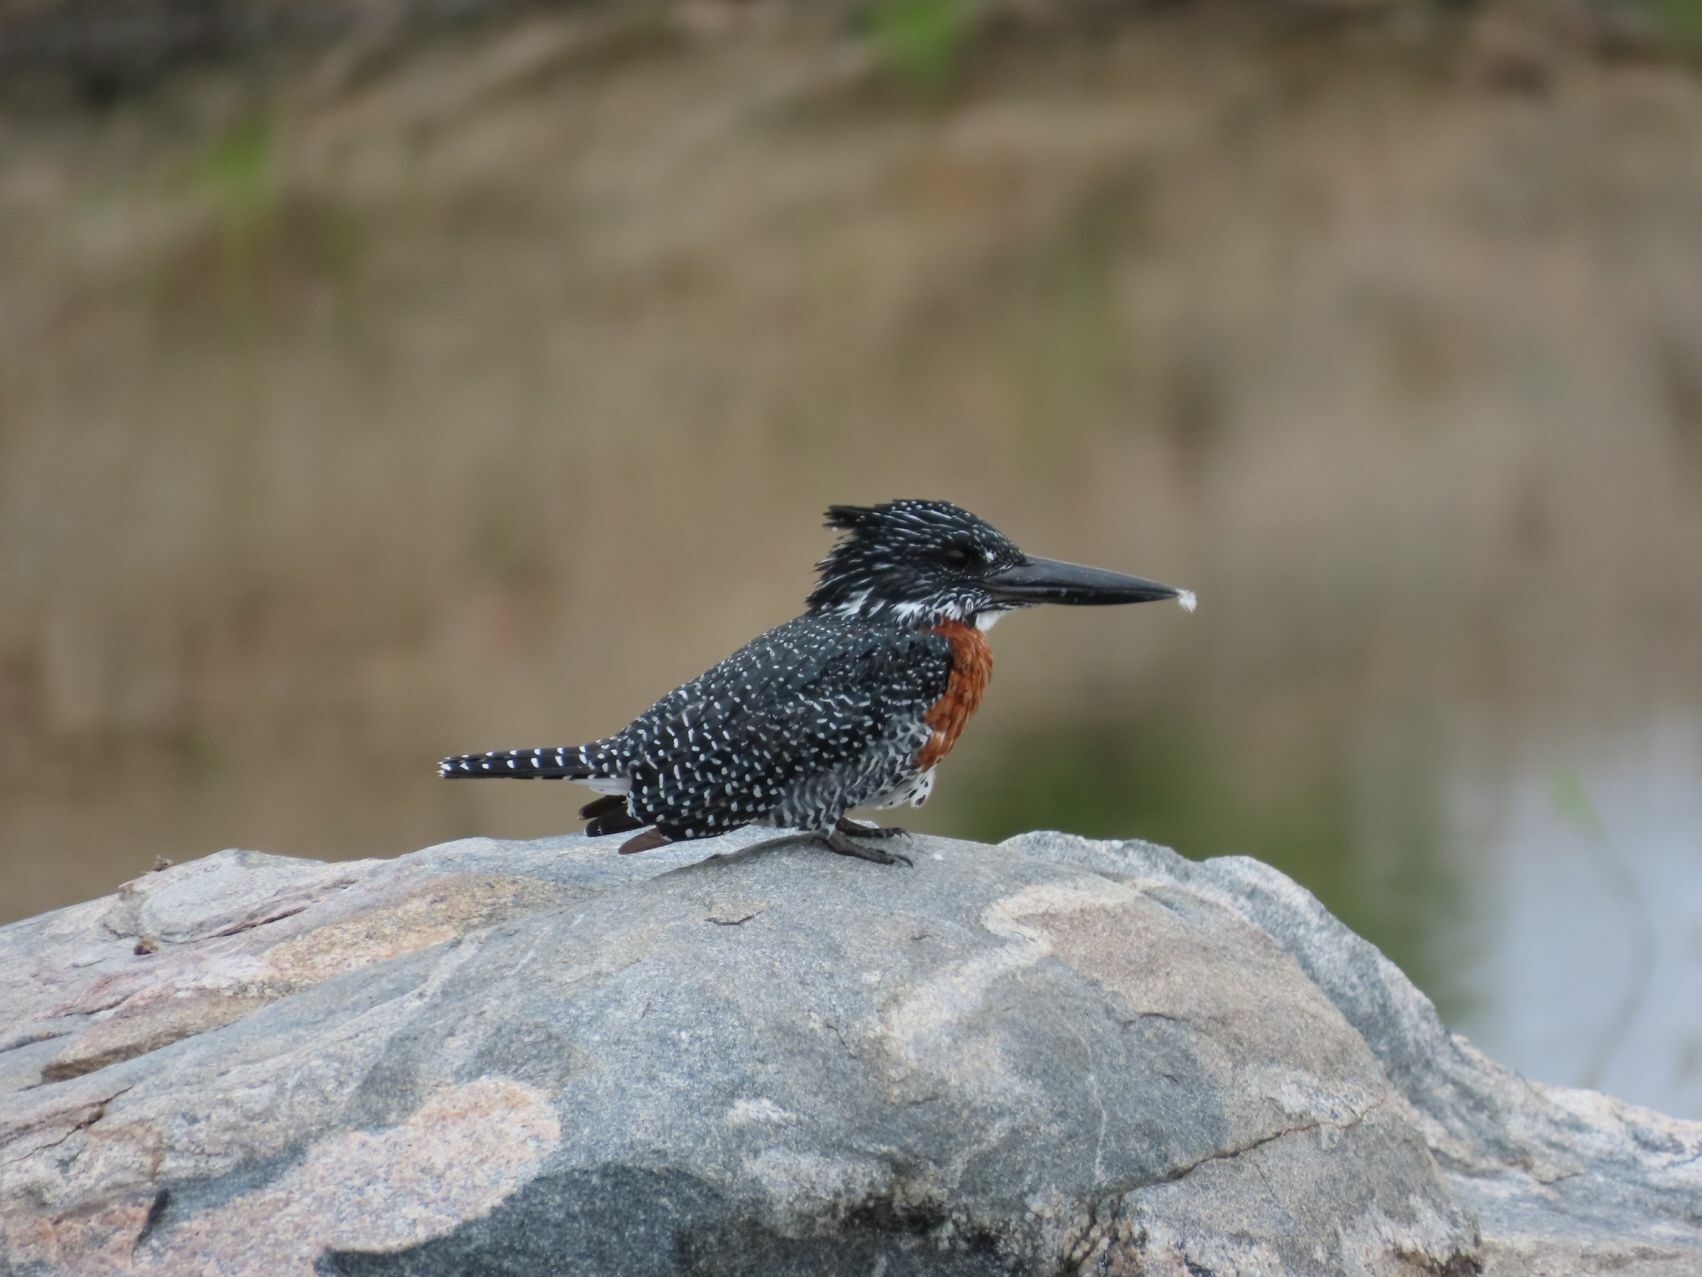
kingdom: Animalia
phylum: Chordata
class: Aves
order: Coraciiformes
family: Alcedinidae
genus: Megaceryle
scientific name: Megaceryle maxima
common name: Giant kingfisher
